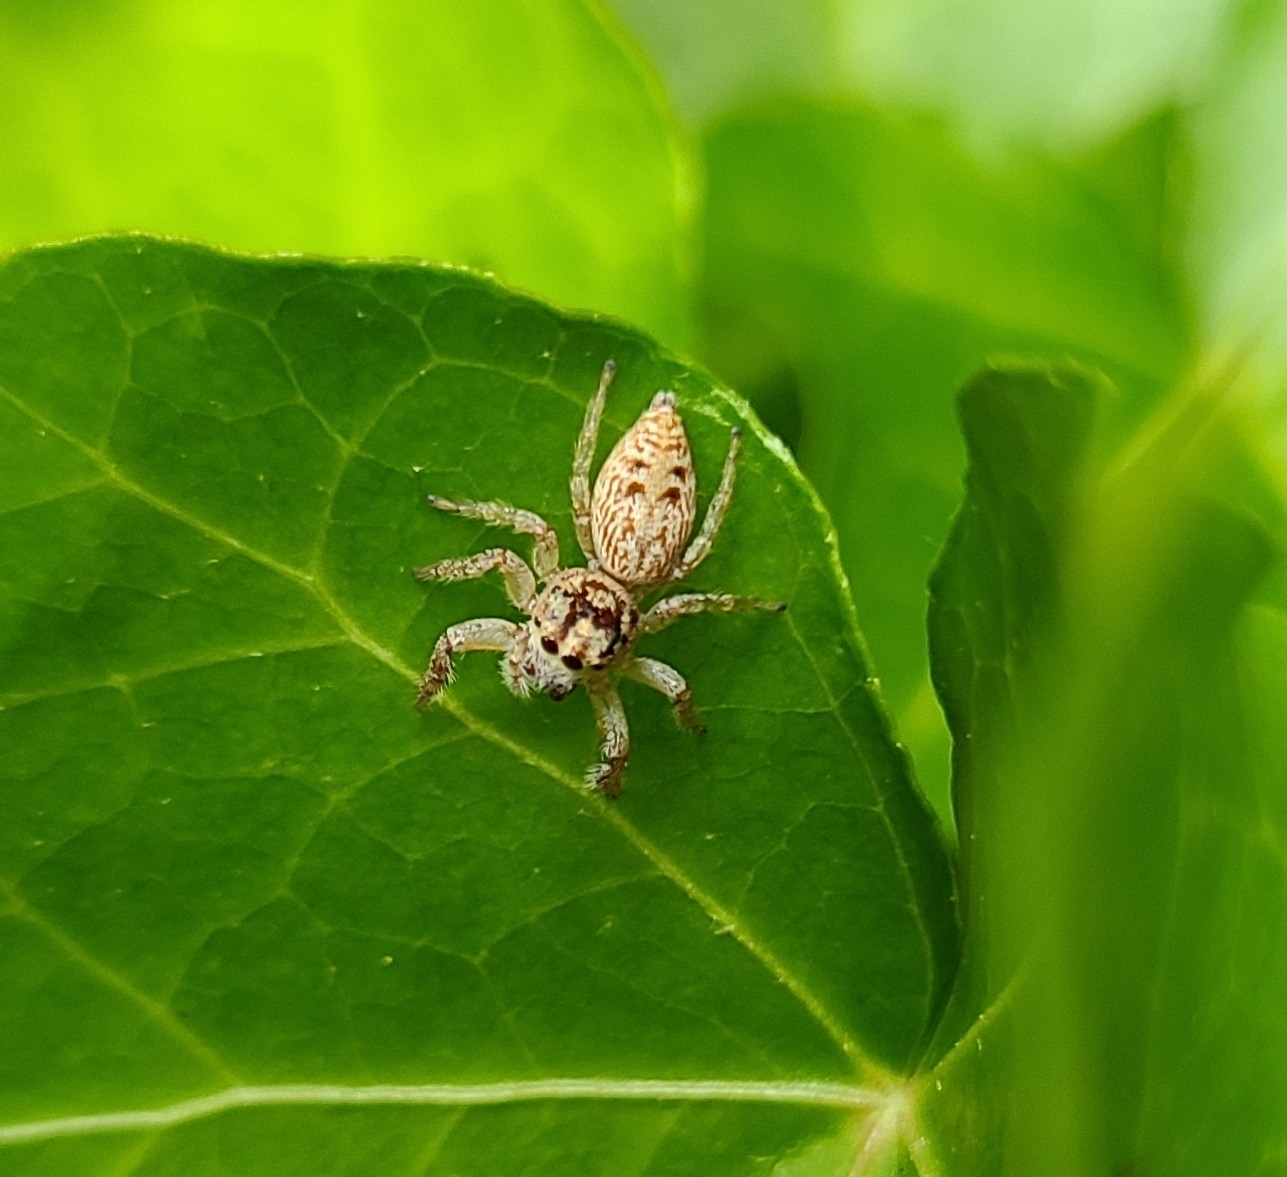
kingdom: Animalia
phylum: Arthropoda
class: Arachnida
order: Araneae
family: Salticidae
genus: Opisthoncus
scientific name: Opisthoncus polyphemus
